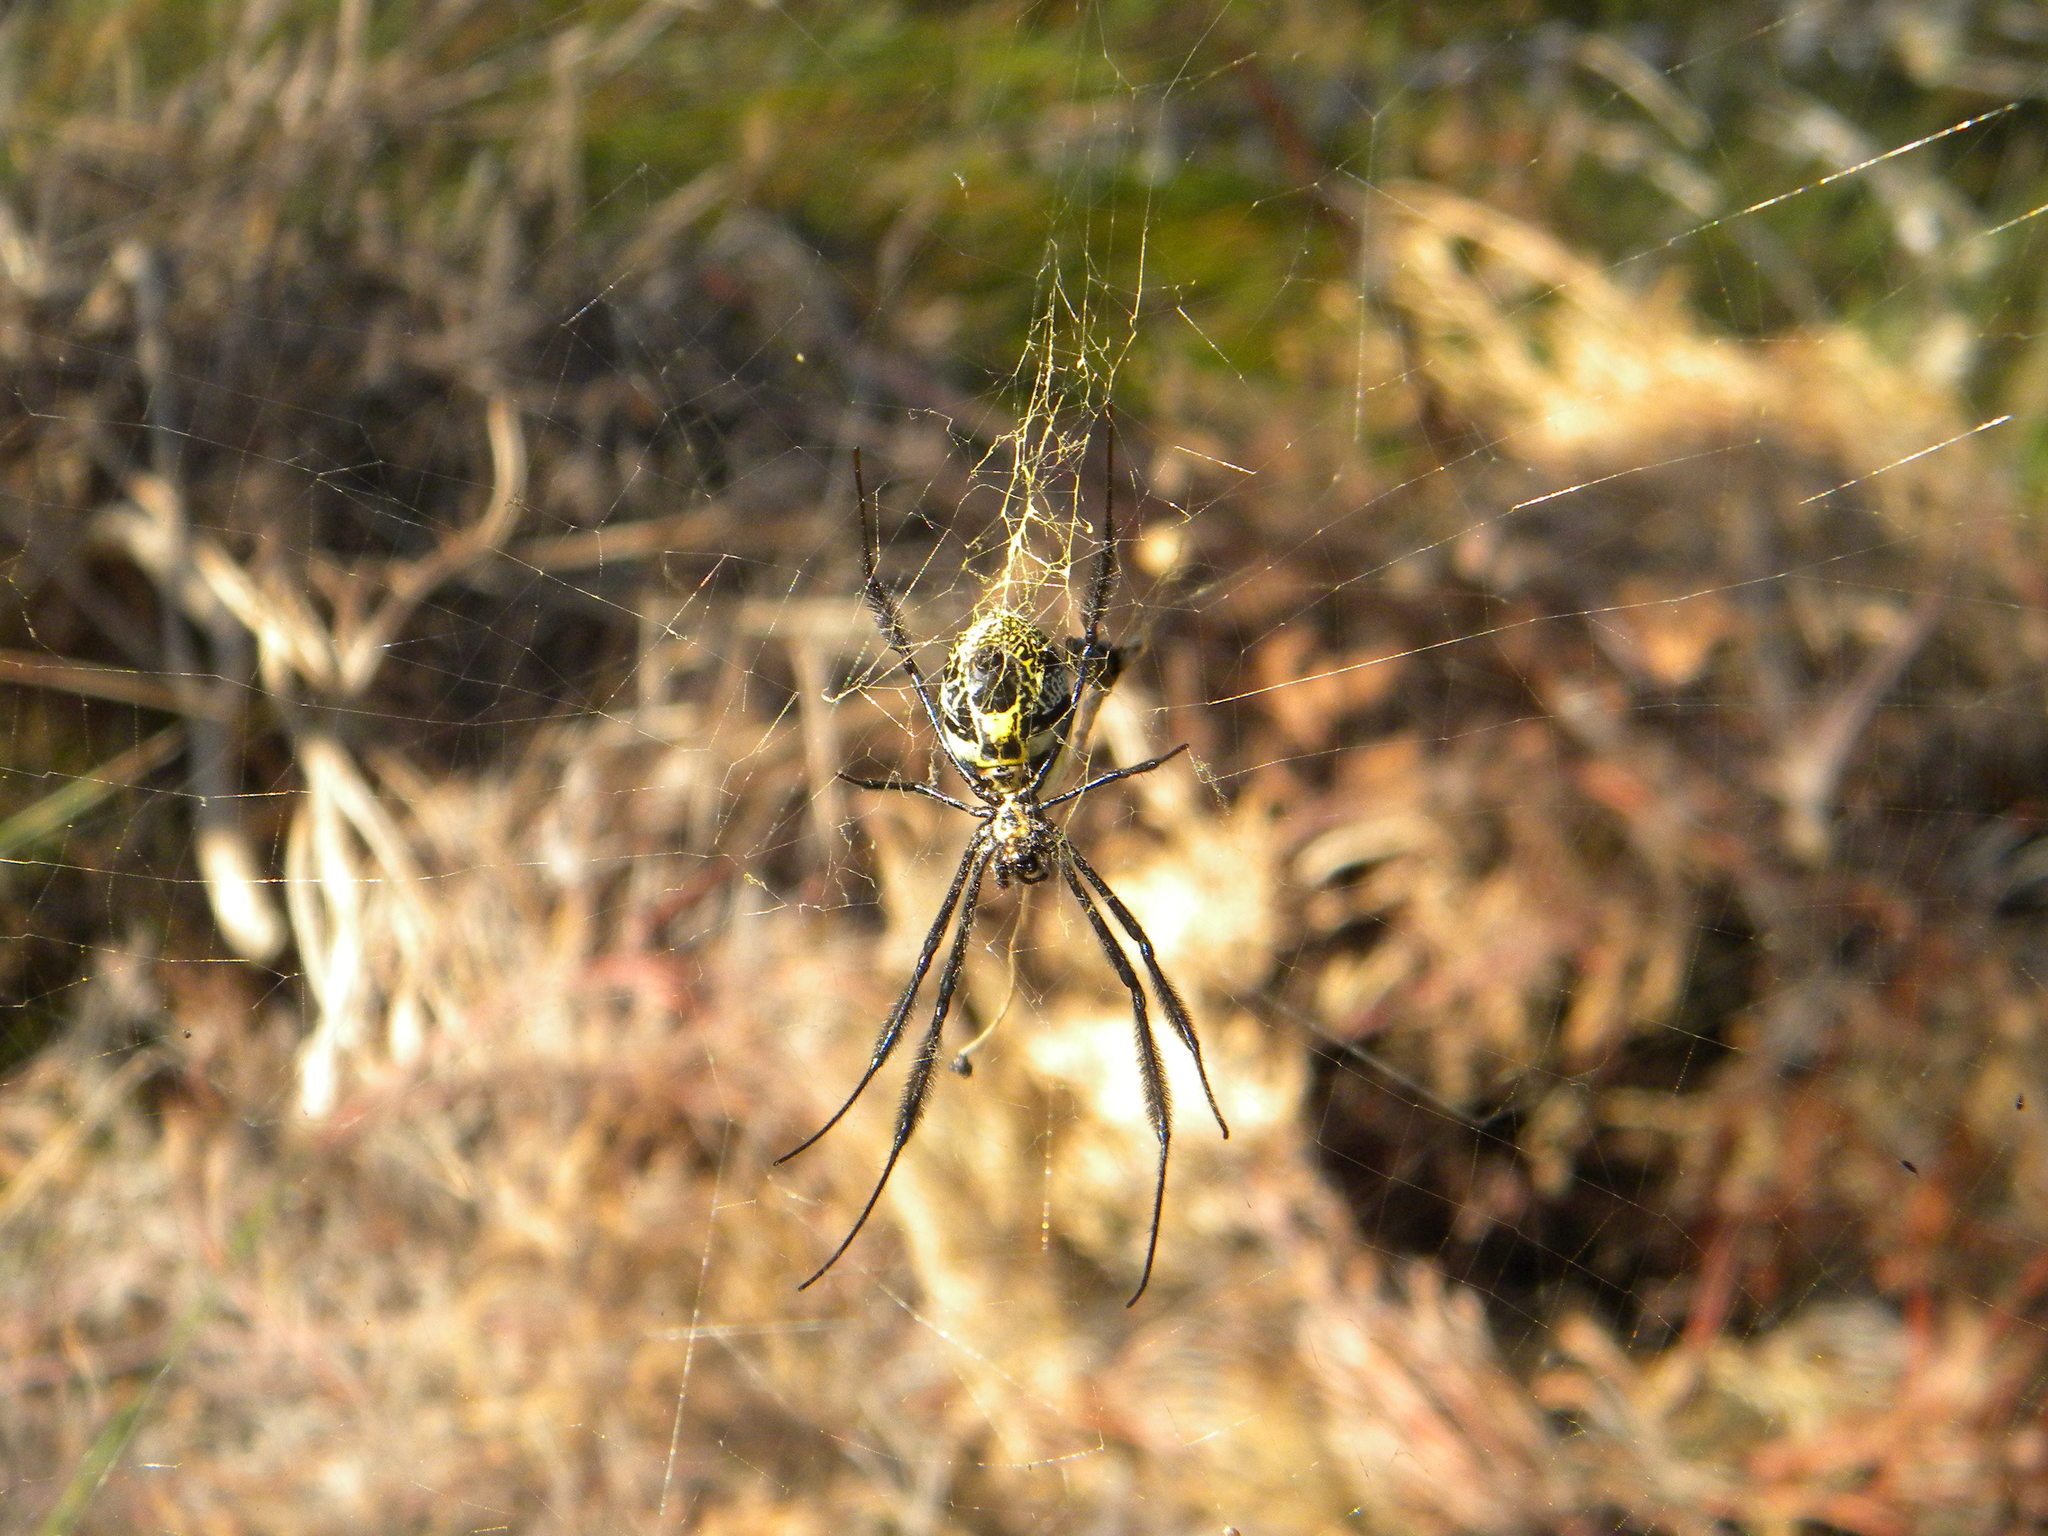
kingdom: Animalia
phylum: Arthropoda
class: Arachnida
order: Araneae
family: Araneidae
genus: Trichonephila
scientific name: Trichonephila fenestrata
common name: Hairy golden orb weaver
